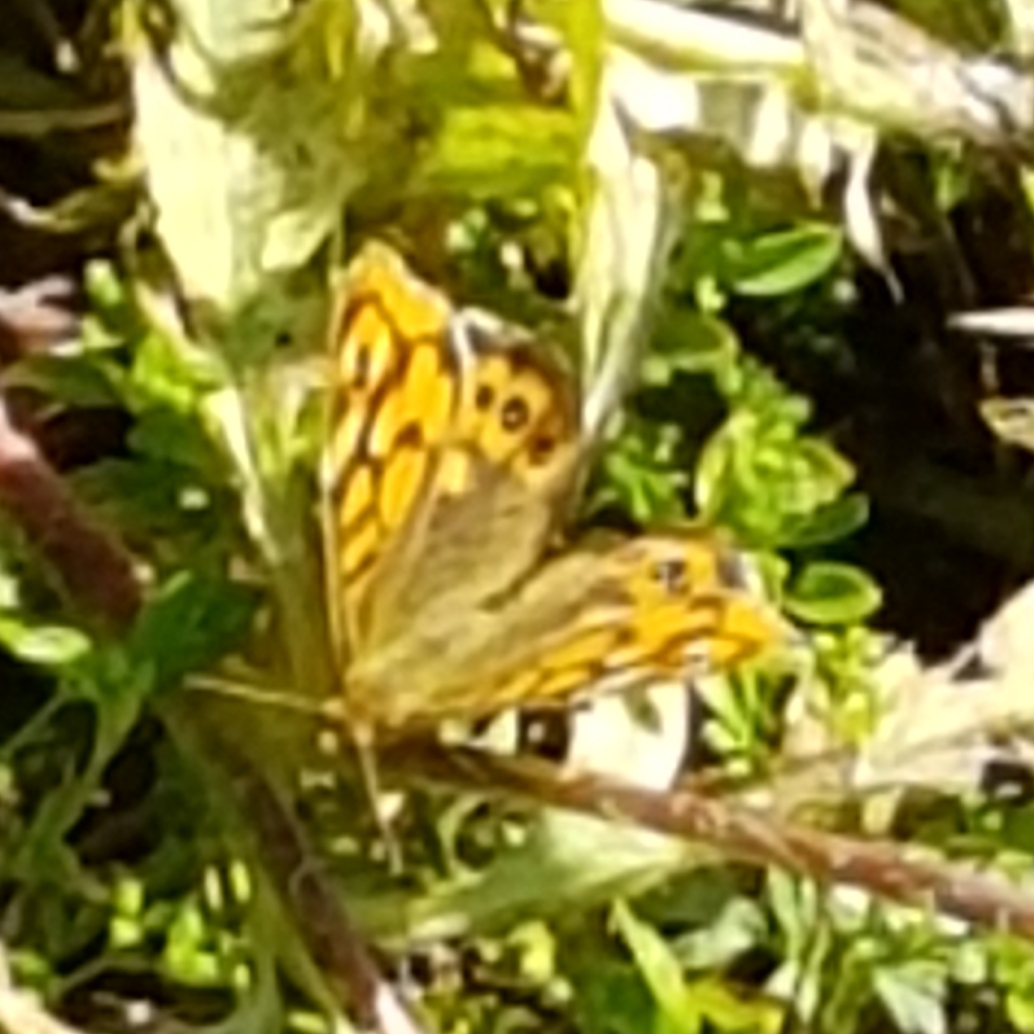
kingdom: Animalia
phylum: Arthropoda
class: Insecta
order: Lepidoptera
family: Nymphalidae
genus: Pararge
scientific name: Pararge aegeria
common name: Speckled wood
